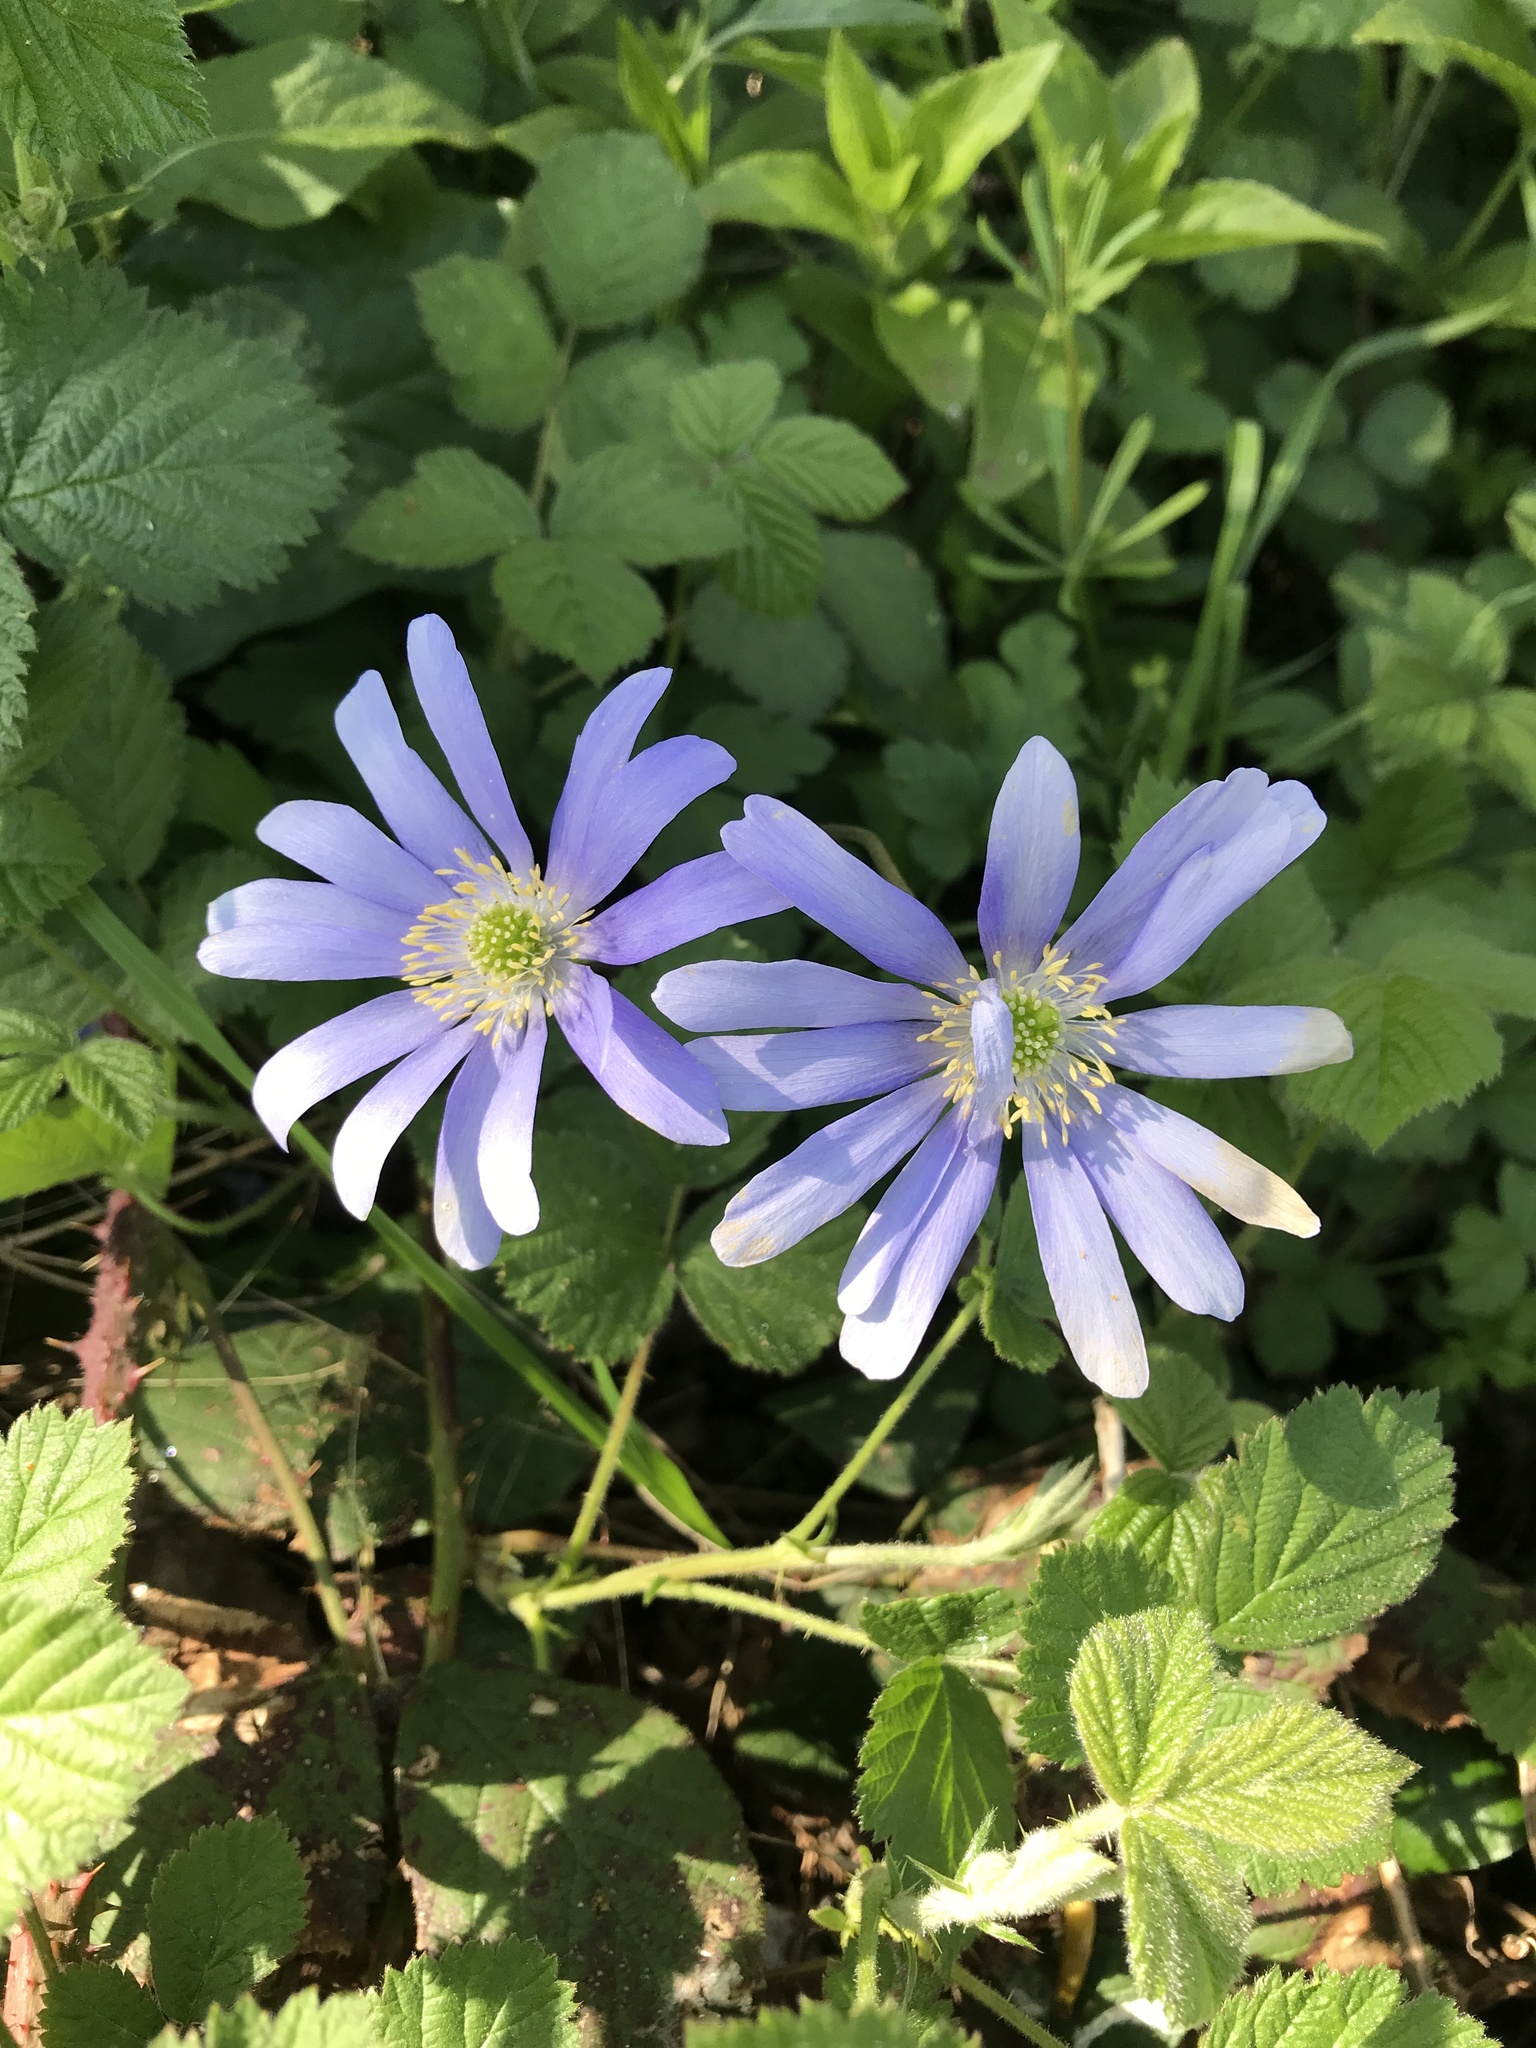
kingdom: Plantae
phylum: Tracheophyta
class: Magnoliopsida
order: Ranunculales
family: Ranunculaceae
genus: Anemone
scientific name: Anemone apennina
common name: Blue anemone
